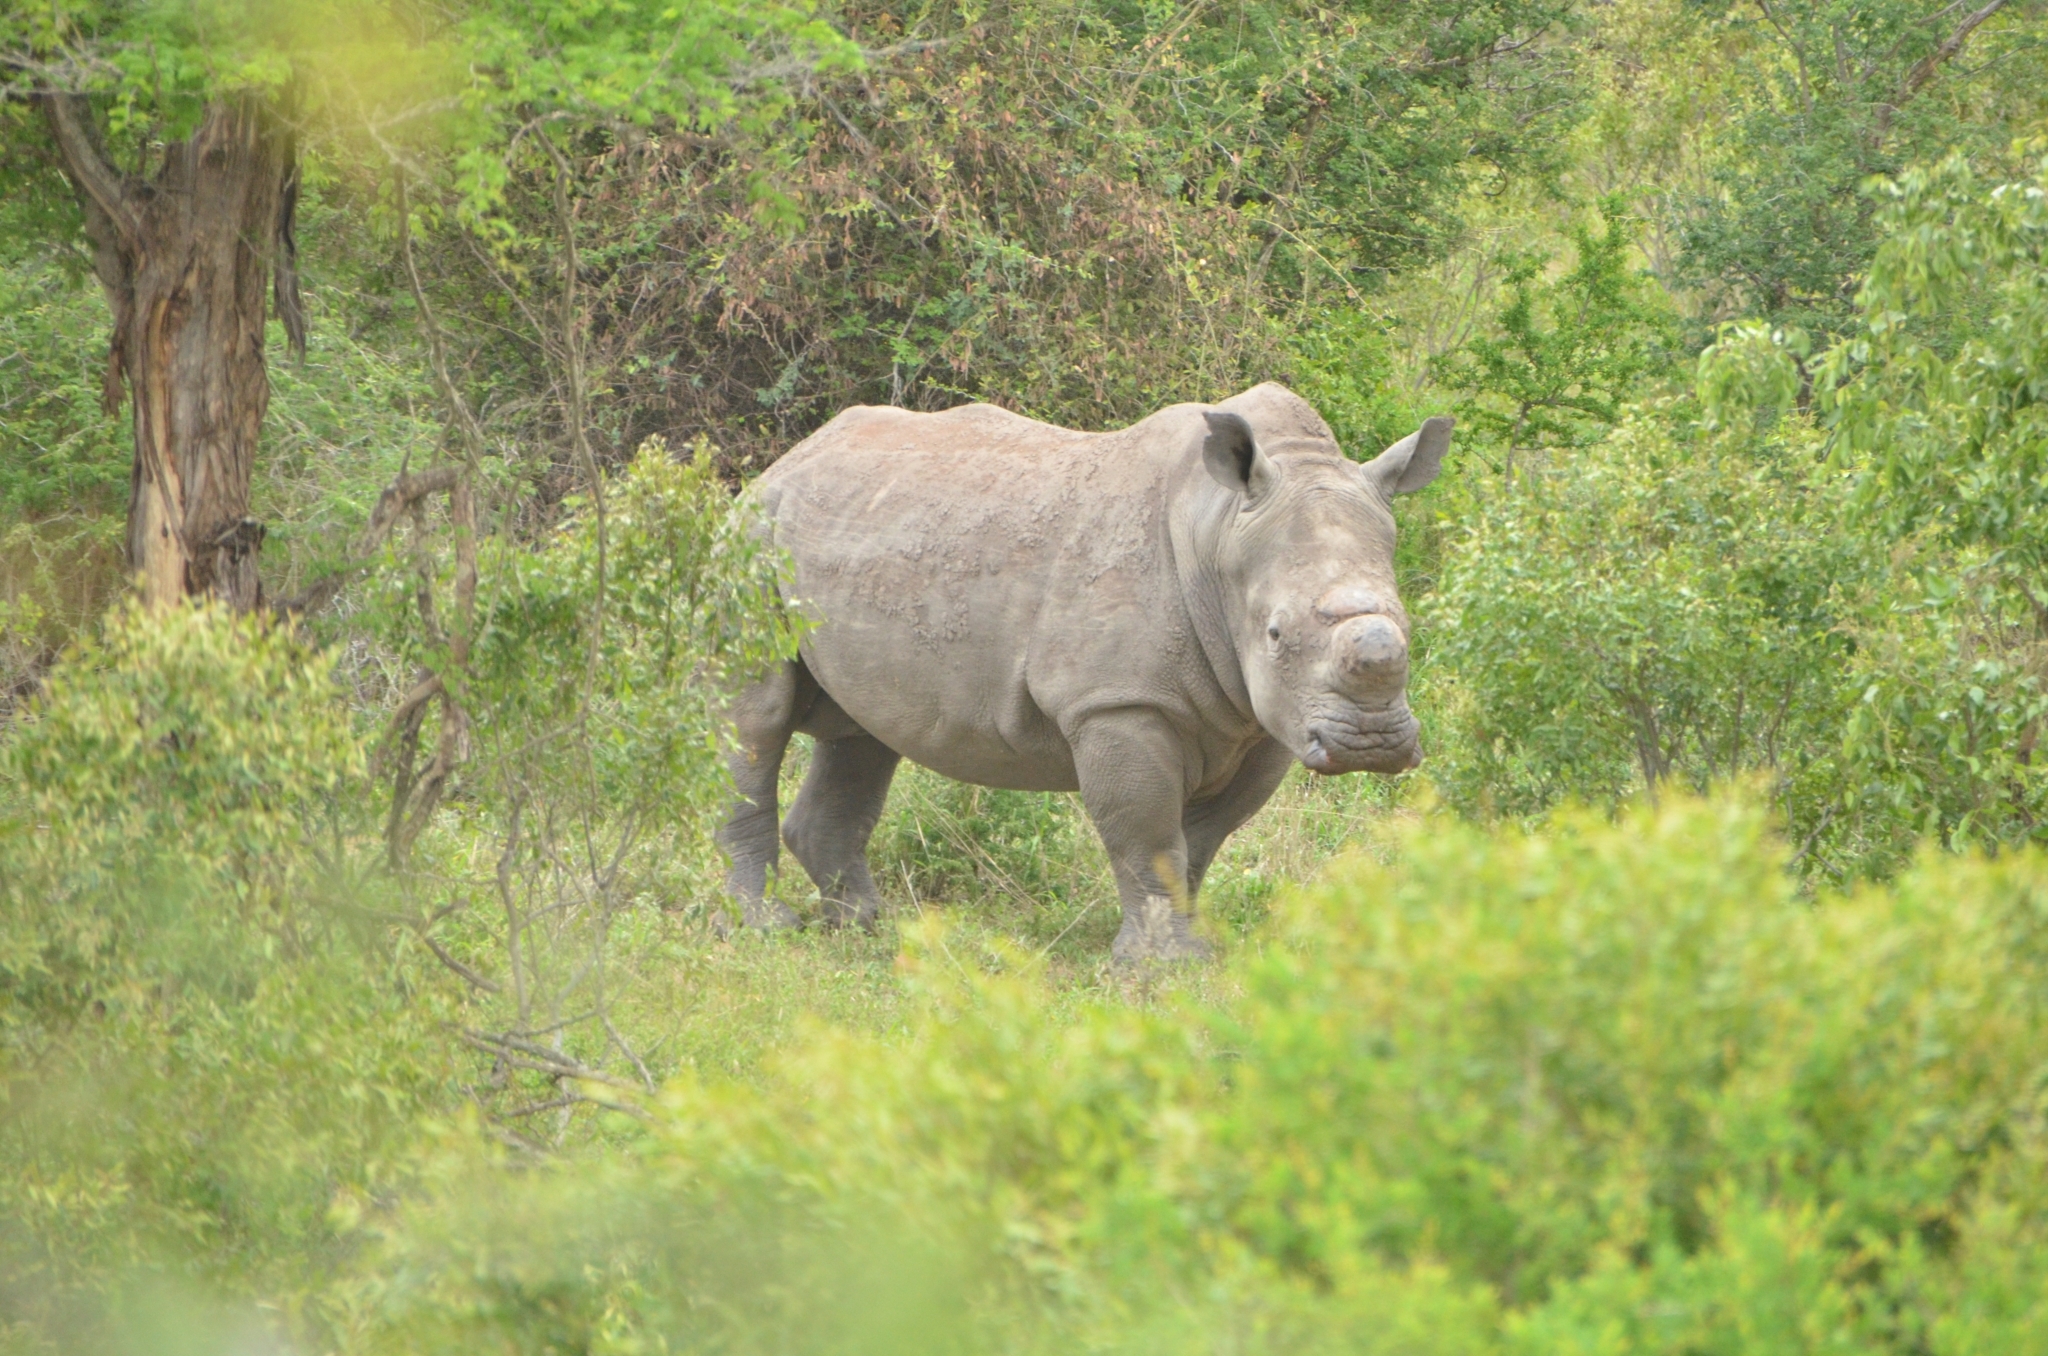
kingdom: Animalia
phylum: Chordata
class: Mammalia
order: Perissodactyla
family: Rhinocerotidae
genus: Ceratotherium
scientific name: Ceratotherium simum
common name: White rhinoceros
